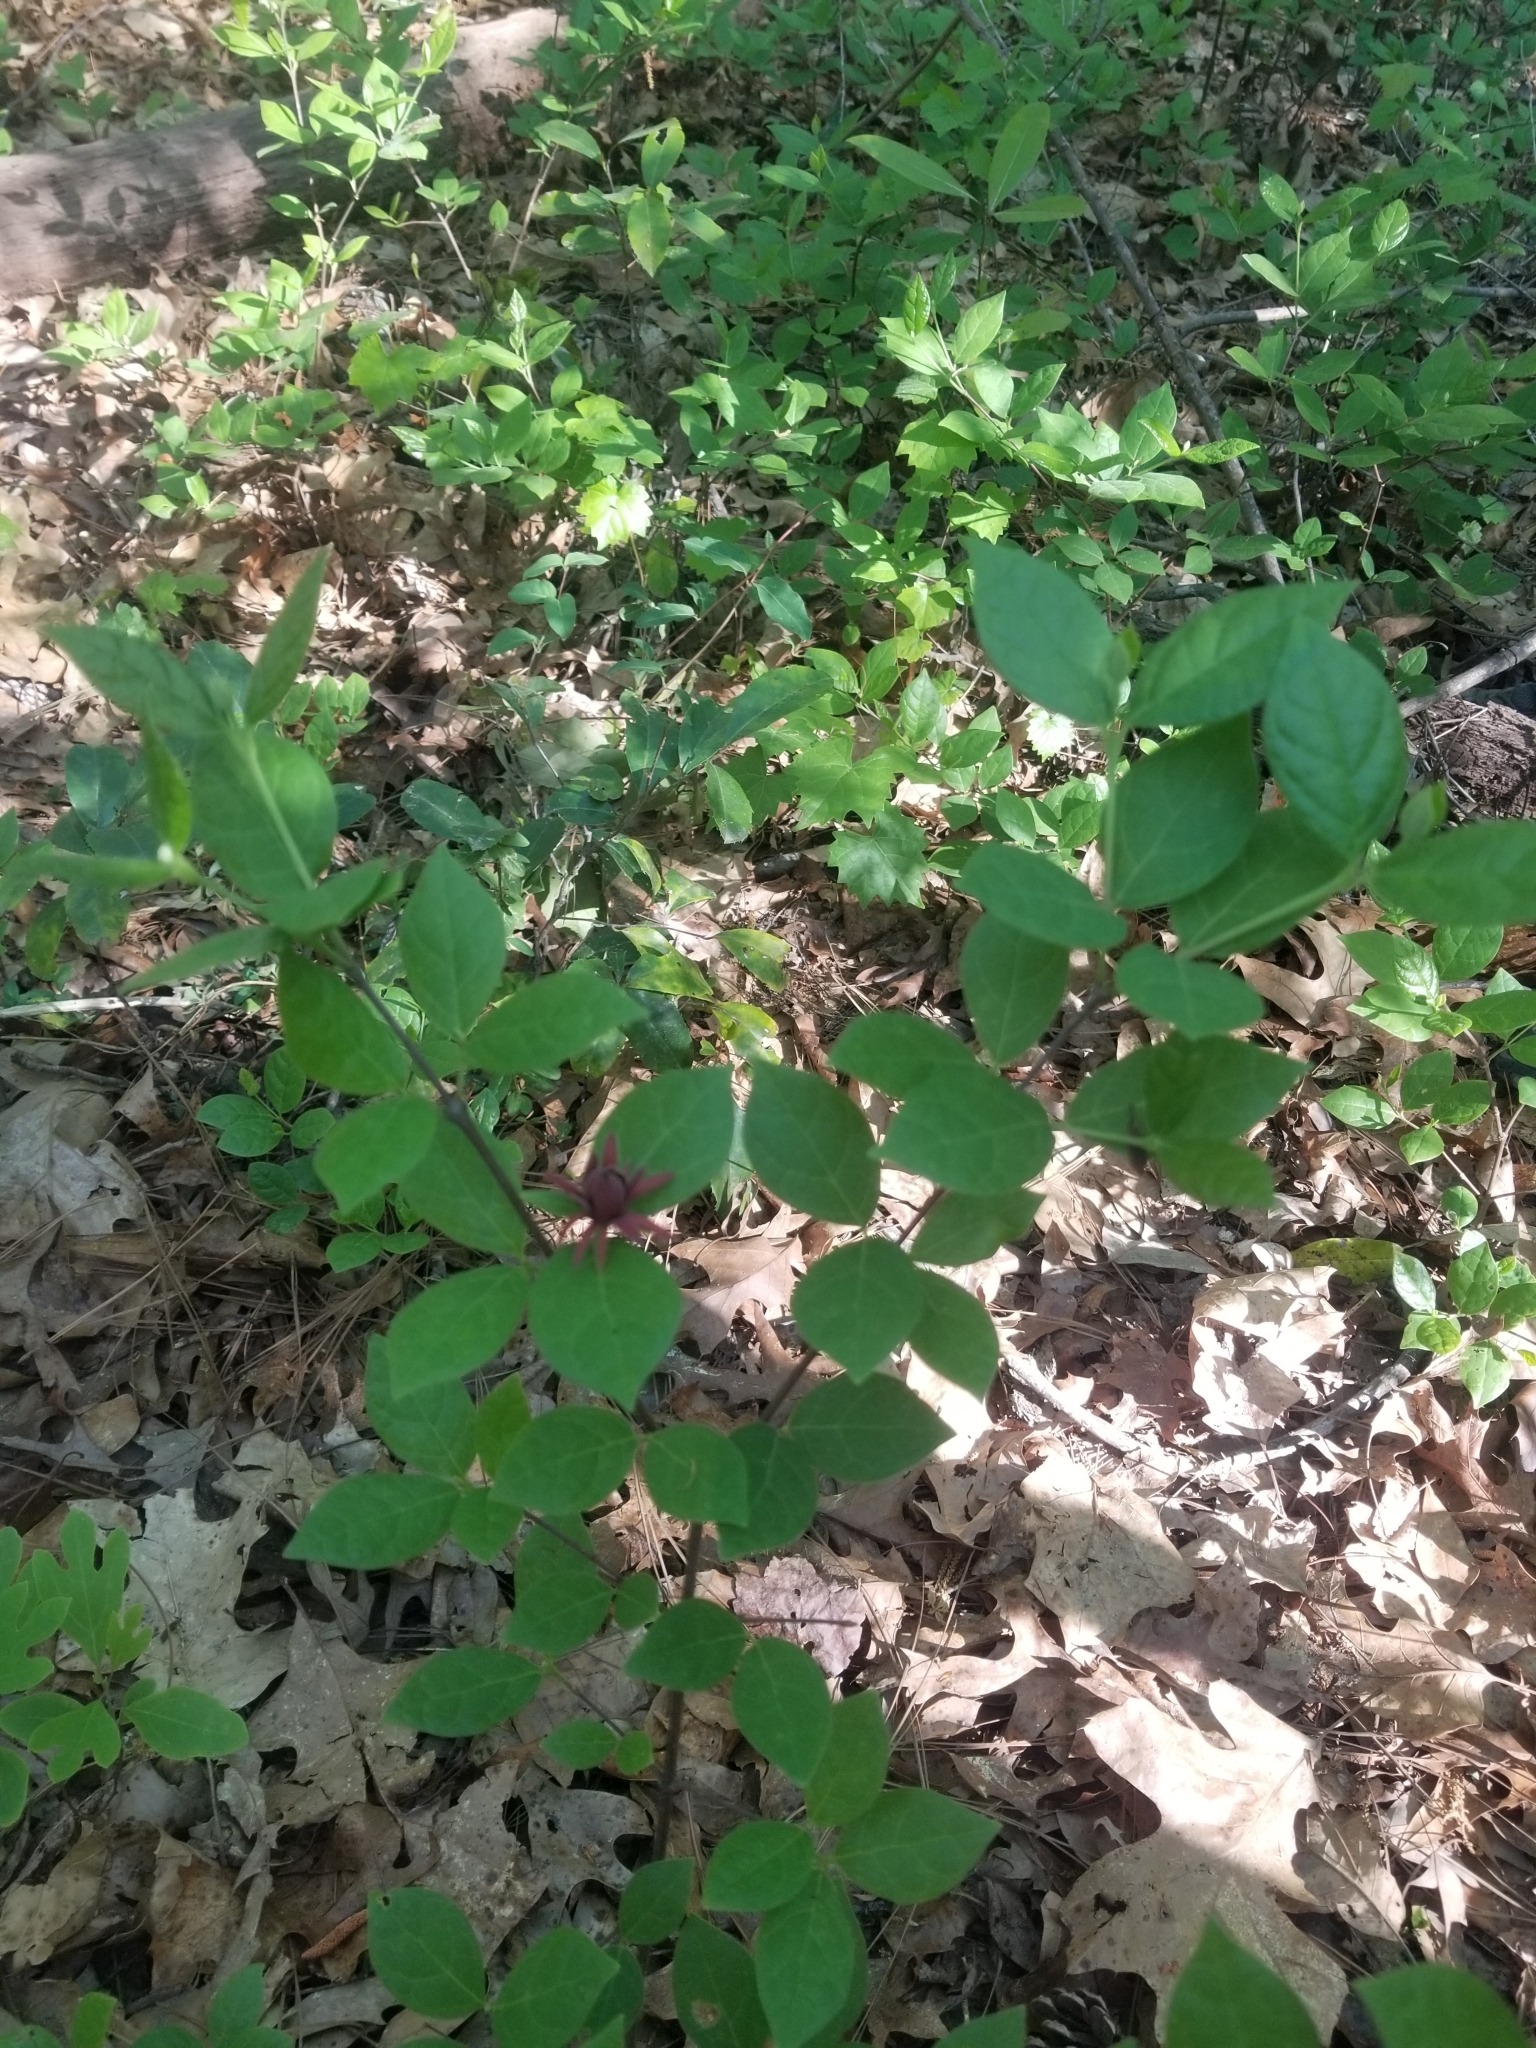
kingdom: Plantae
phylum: Tracheophyta
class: Magnoliopsida
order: Laurales
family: Calycanthaceae
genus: Calycanthus
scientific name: Calycanthus floridus
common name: Carolina-allspice
